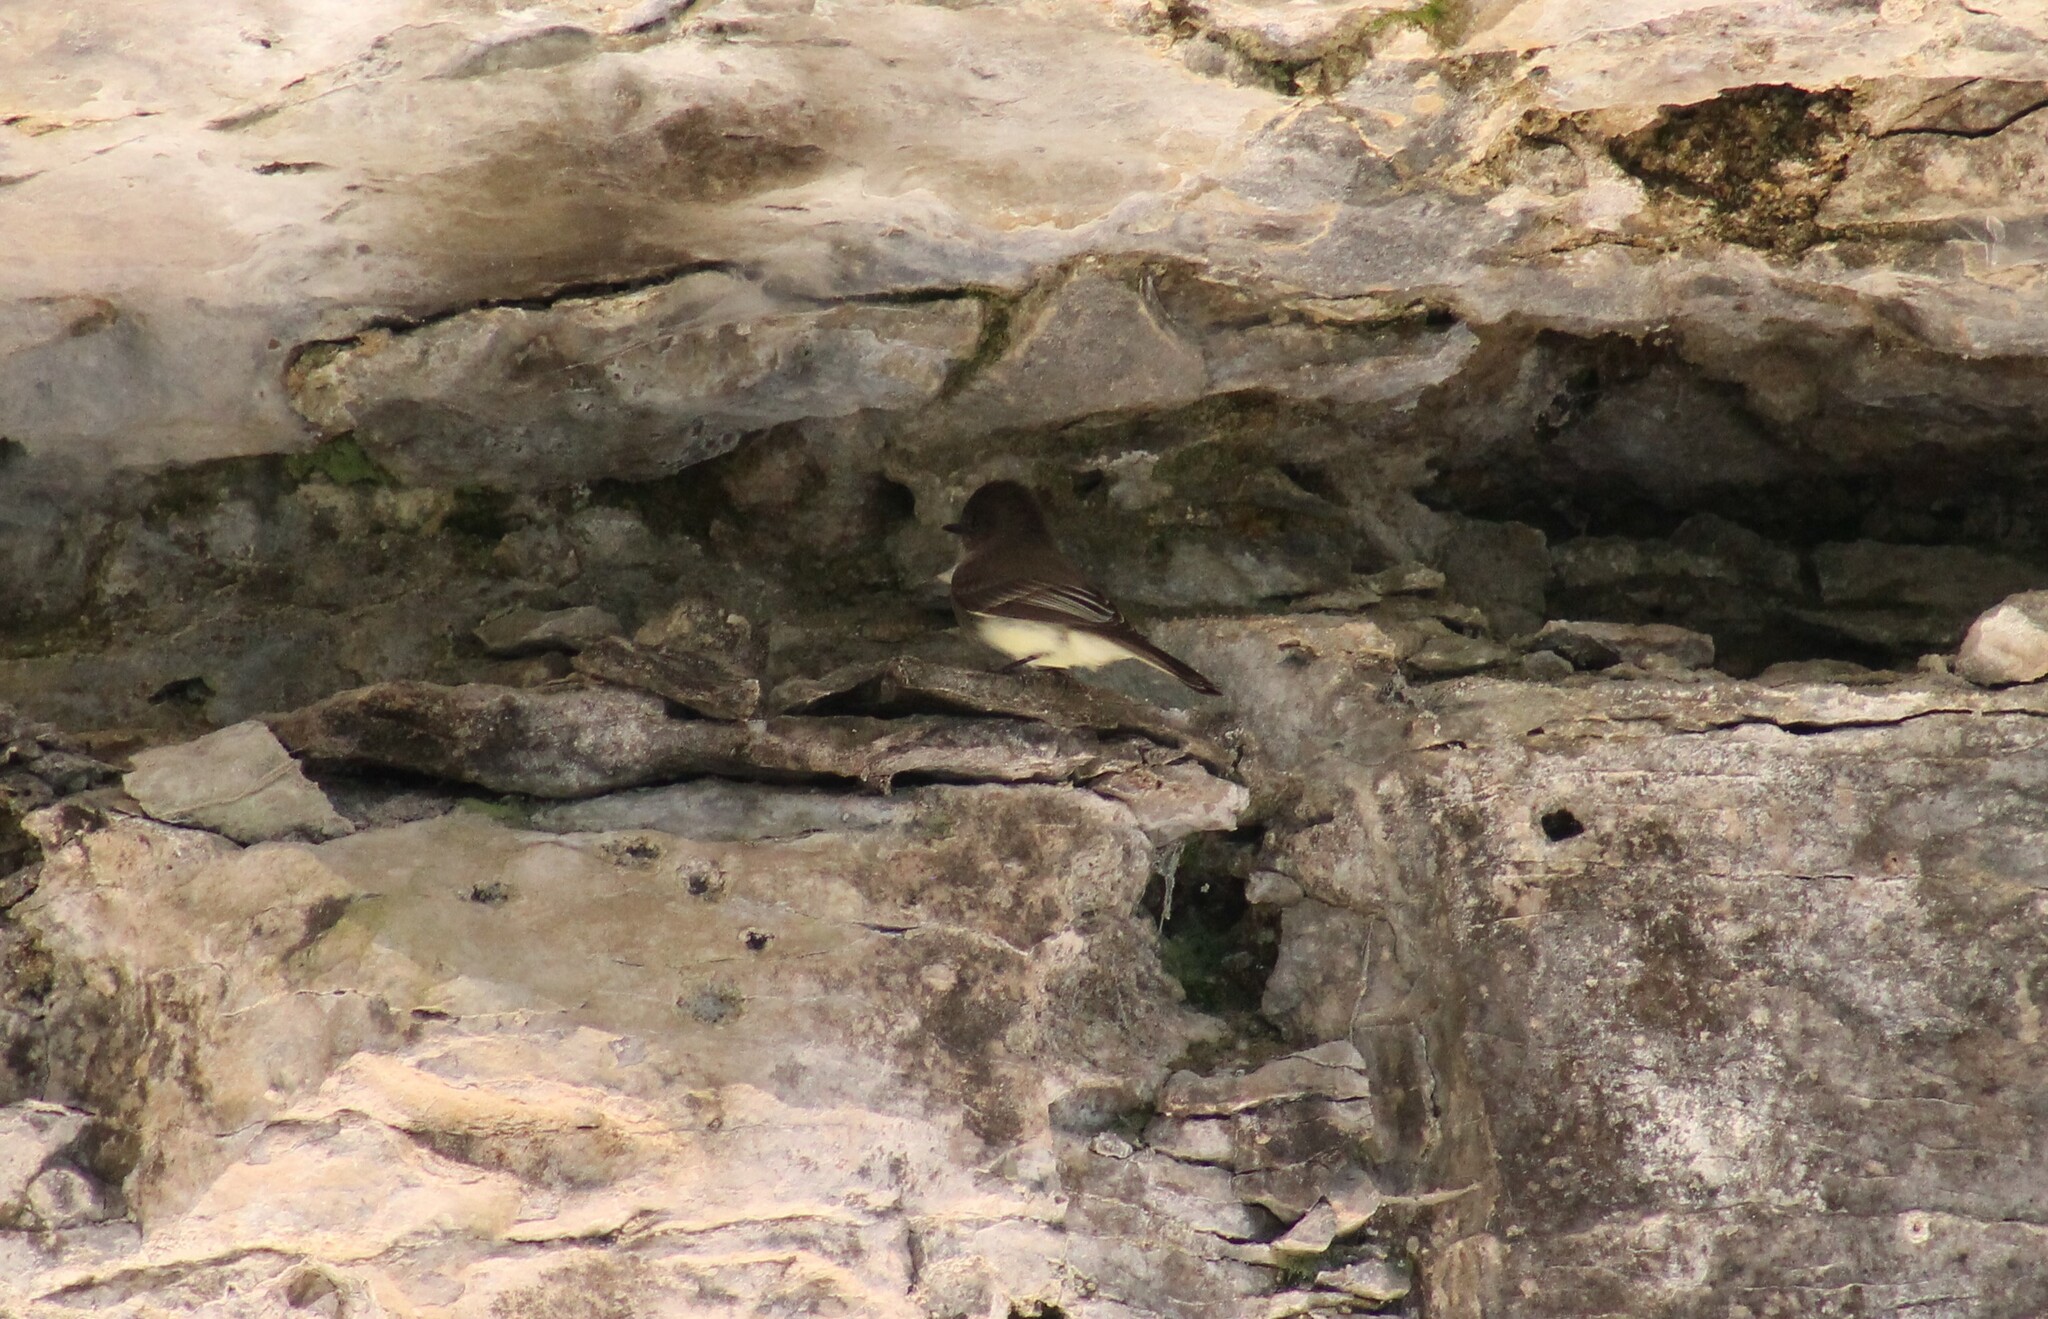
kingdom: Animalia
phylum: Chordata
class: Aves
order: Passeriformes
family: Tyrannidae
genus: Sayornis
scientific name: Sayornis phoebe
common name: Eastern phoebe
